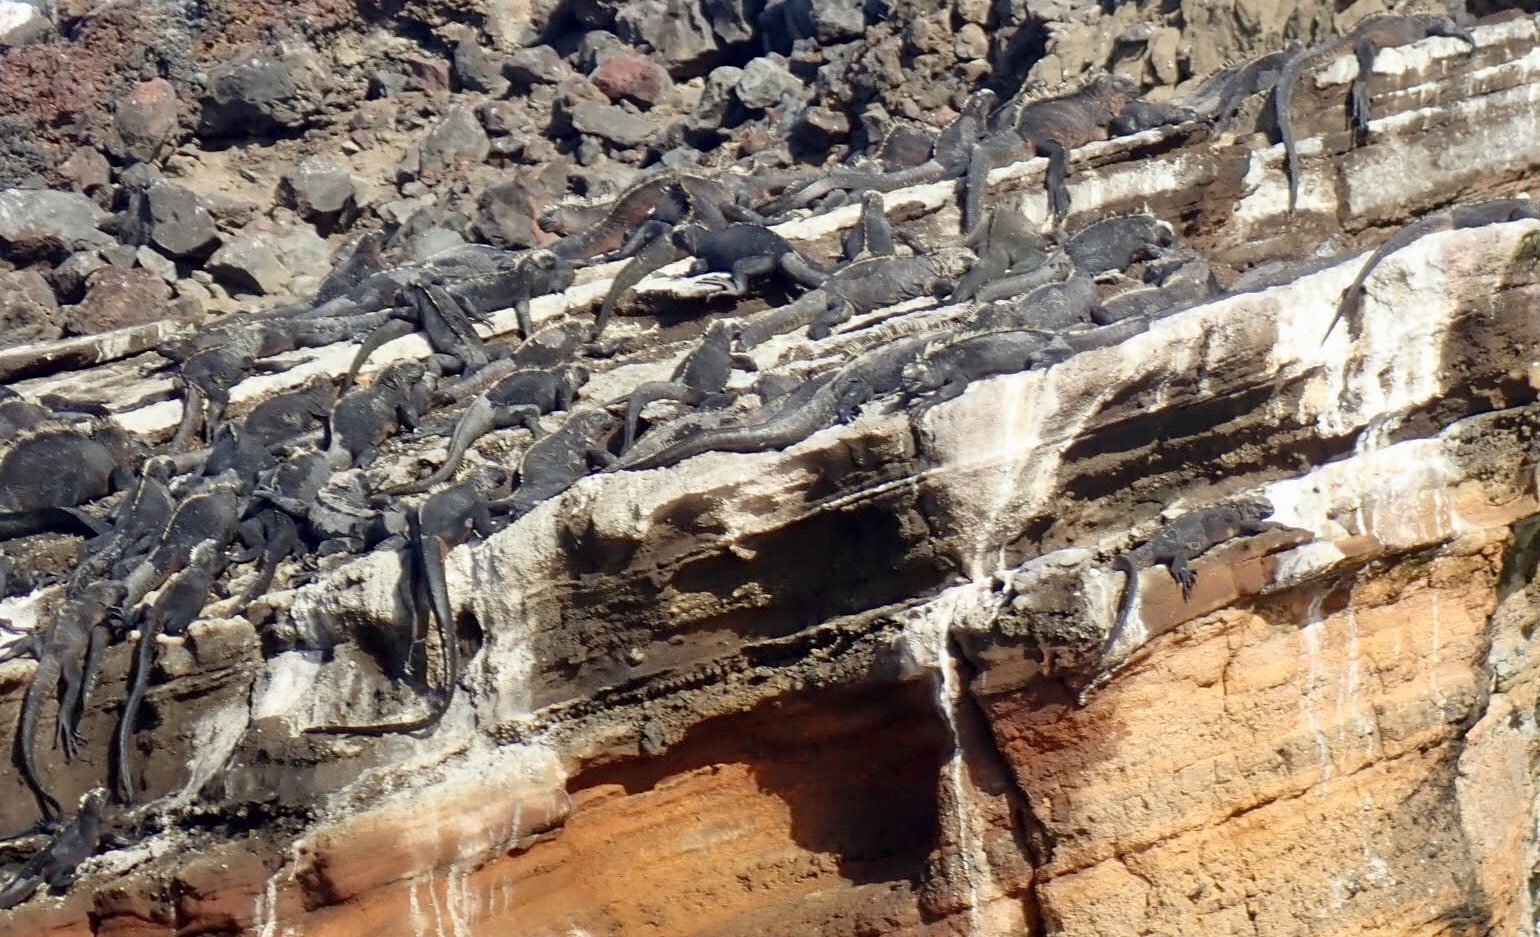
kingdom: Animalia
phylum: Chordata
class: Squamata
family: Iguanidae
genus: Amblyrhynchus
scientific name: Amblyrhynchus cristatus
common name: Marine iguana
